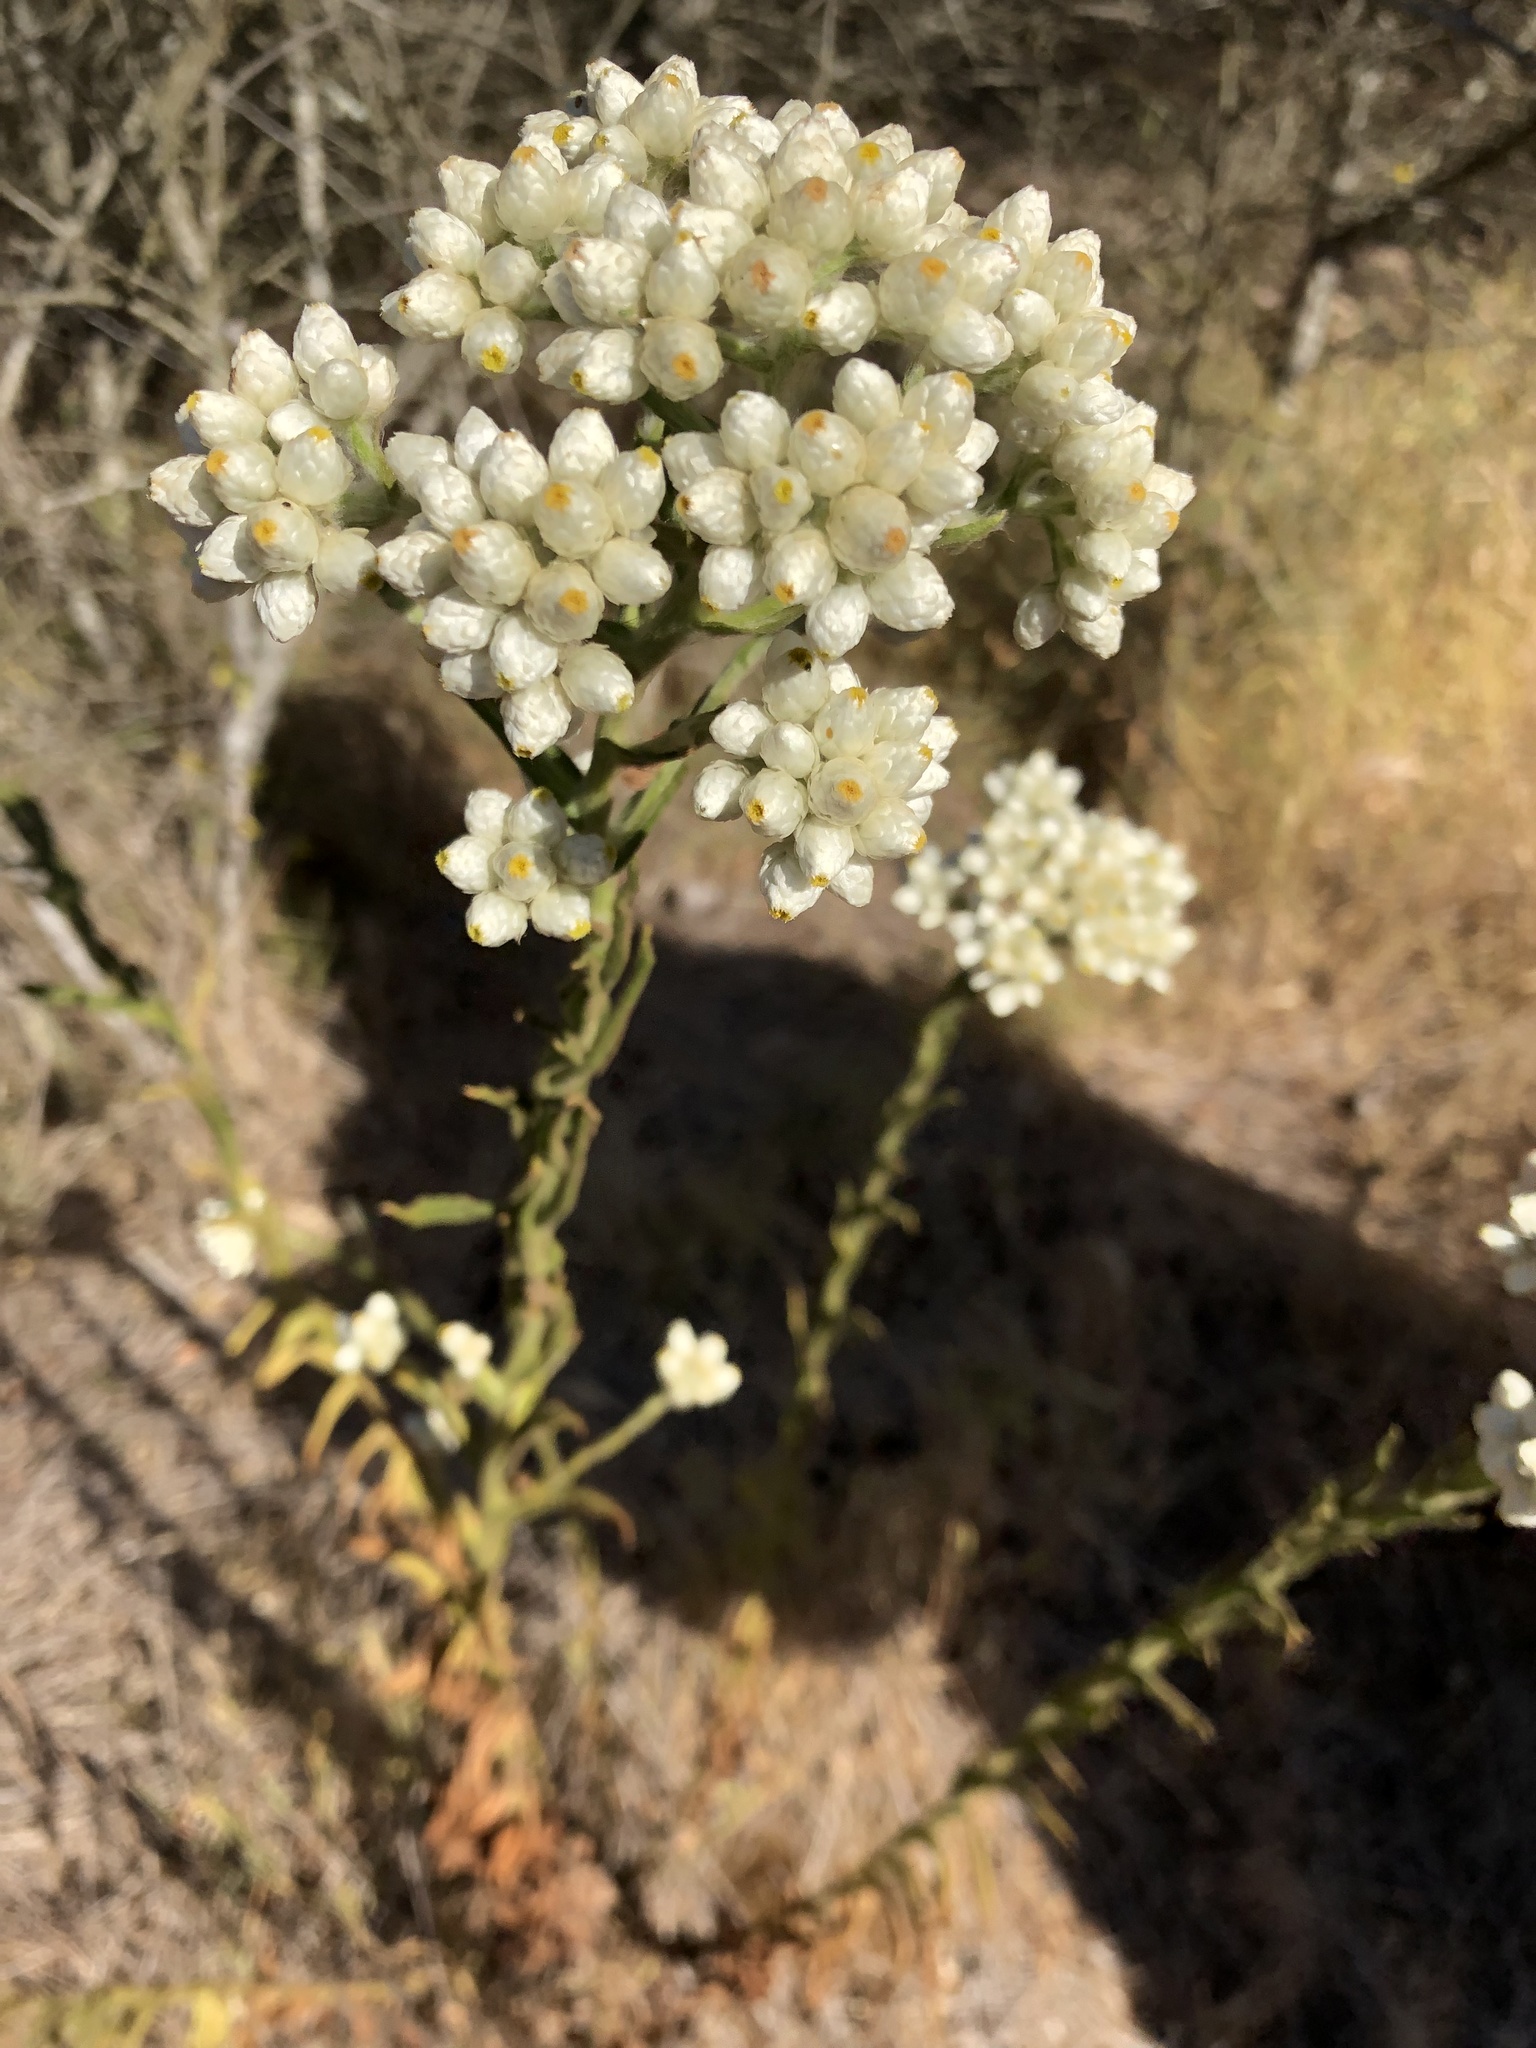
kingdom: Plantae
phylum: Tracheophyta
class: Magnoliopsida
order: Asterales
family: Asteraceae
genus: Pseudognaphalium
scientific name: Pseudognaphalium californicum
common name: California rabbit-tobacco
